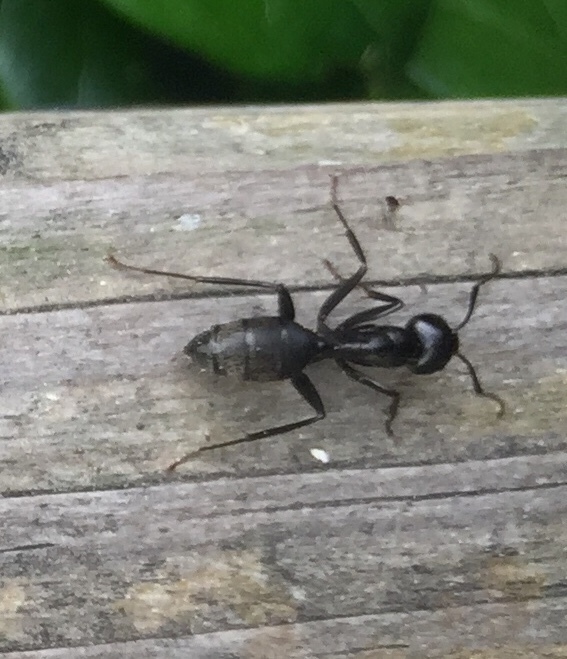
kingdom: Animalia
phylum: Arthropoda
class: Insecta
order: Hymenoptera
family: Formicidae
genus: Camponotus
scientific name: Camponotus pennsylvanicus
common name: Black carpenter ant
